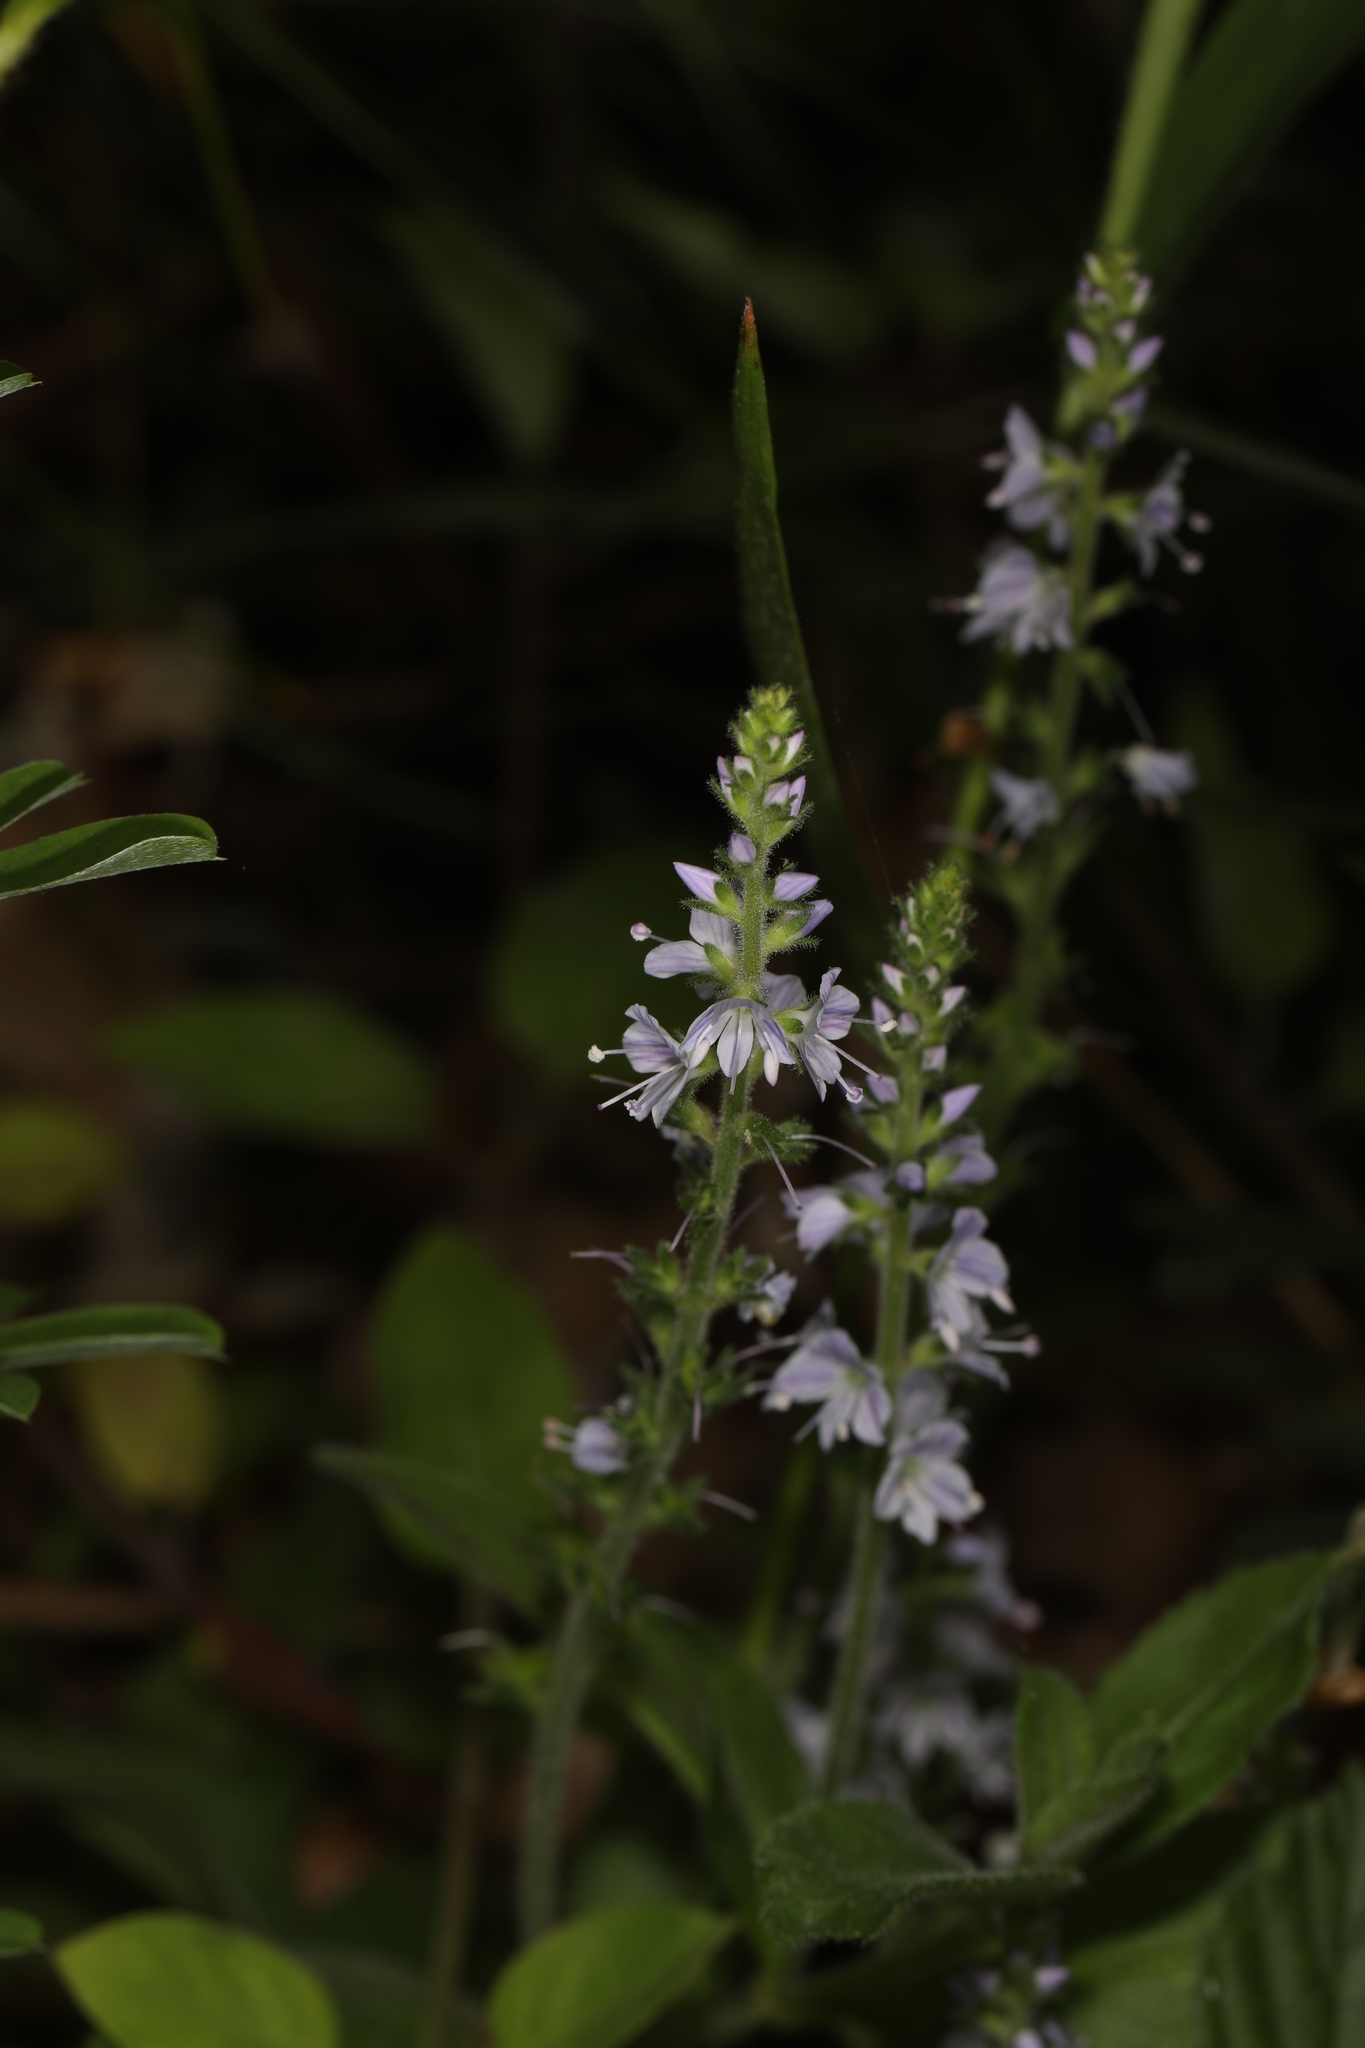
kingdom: Plantae
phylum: Tracheophyta
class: Magnoliopsida
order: Lamiales
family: Plantaginaceae
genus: Veronica
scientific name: Veronica officinalis
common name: Common speedwell
